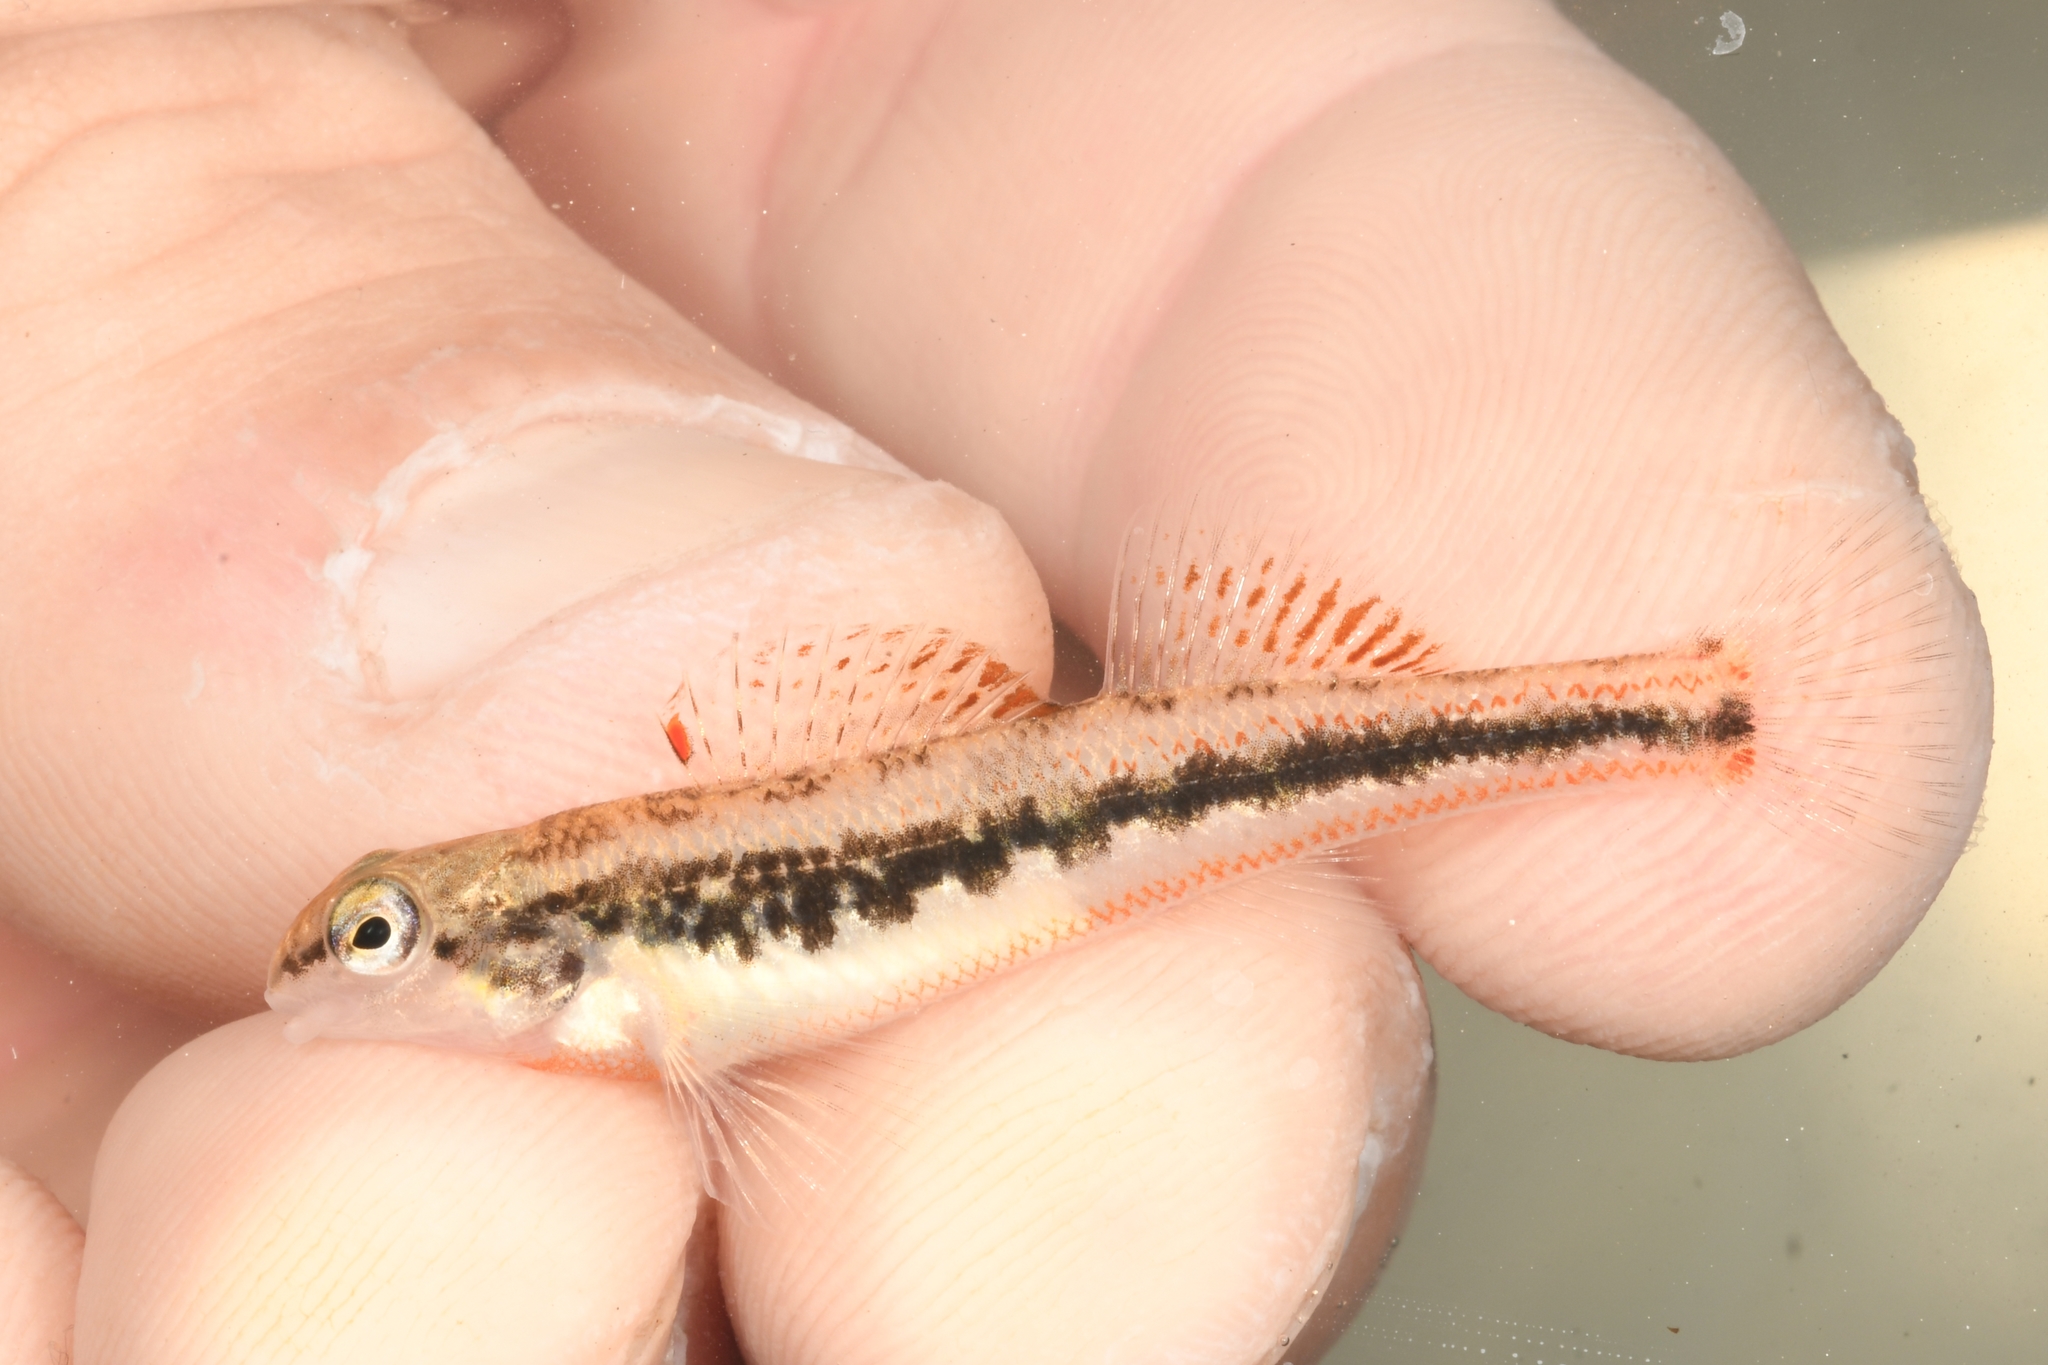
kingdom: Animalia
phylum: Chordata
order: Perciformes
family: Percidae
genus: Etheostoma
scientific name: Etheostoma duryi
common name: Blackside snubnose darter
